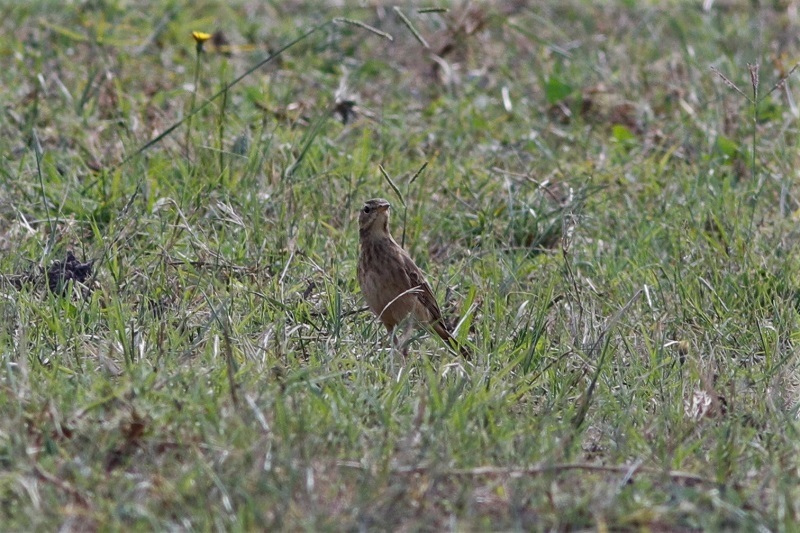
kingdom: Animalia
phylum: Chordata
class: Aves
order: Passeriformes
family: Motacillidae
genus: Anthus
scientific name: Anthus cinnamomeus
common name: African pipit
